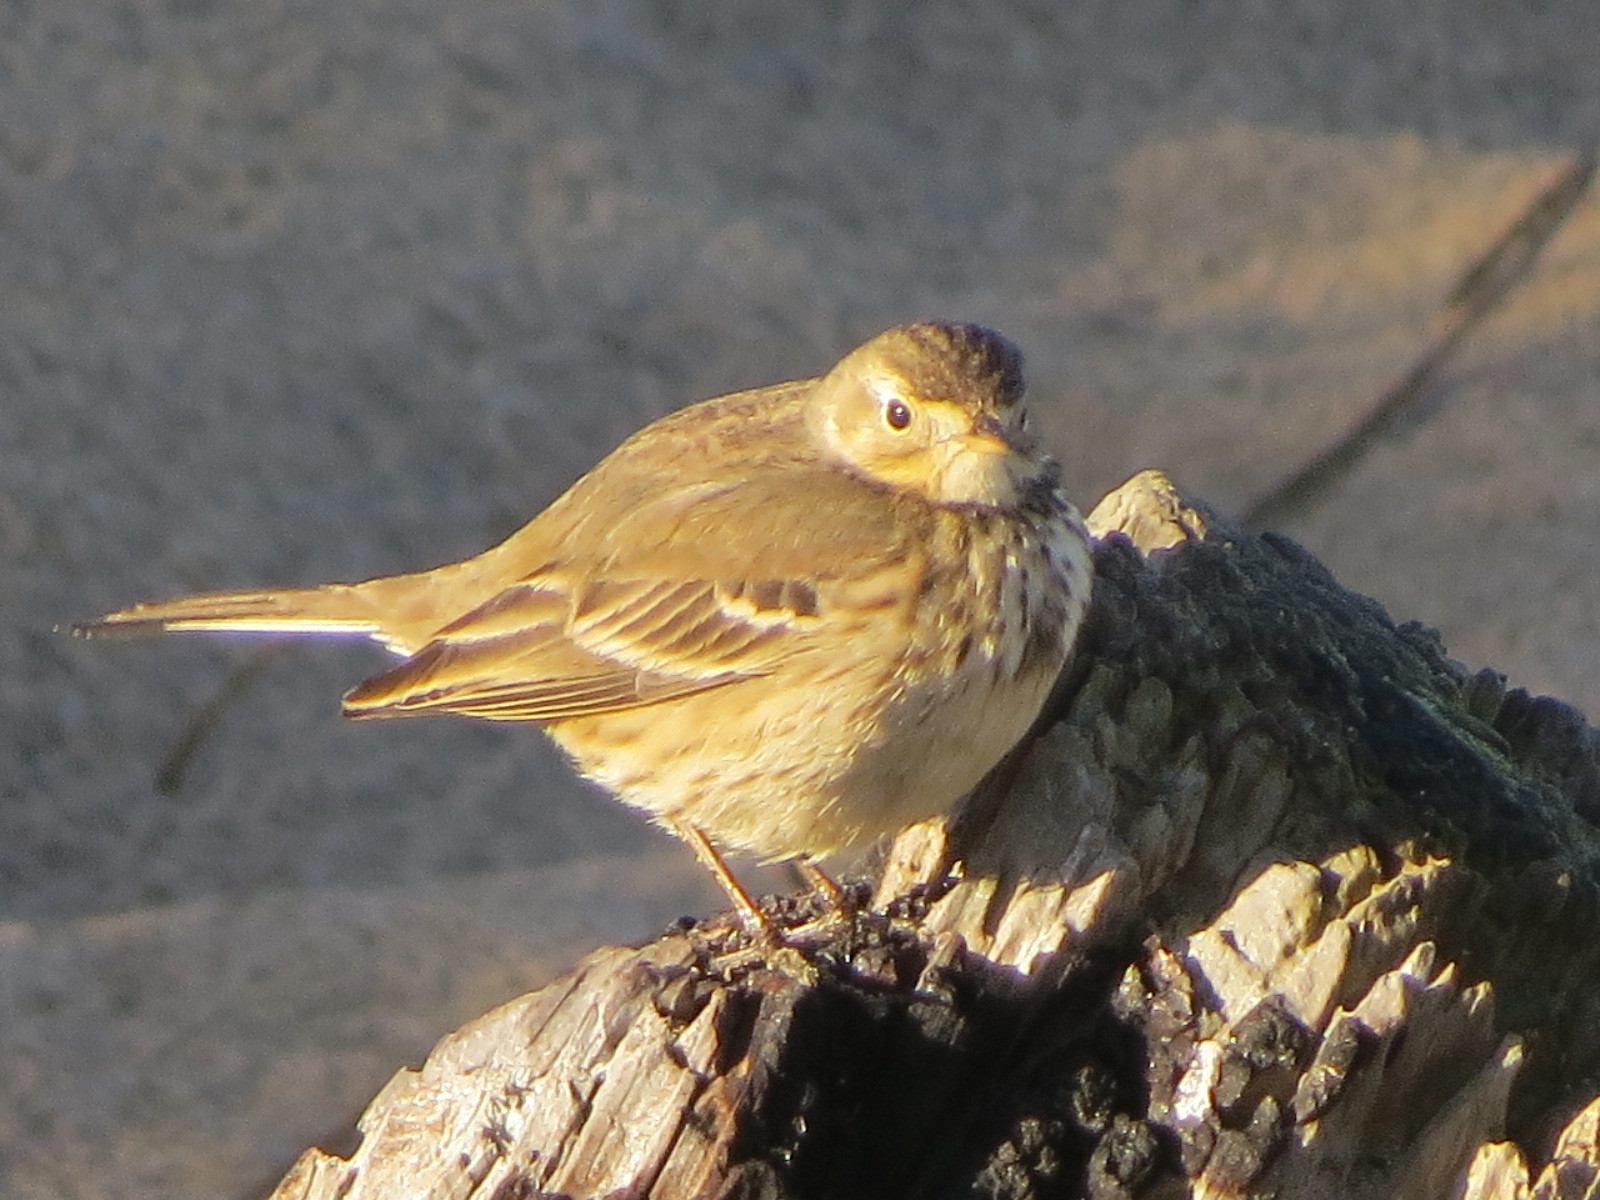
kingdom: Animalia
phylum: Chordata
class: Aves
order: Passeriformes
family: Motacillidae
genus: Anthus
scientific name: Anthus rubescens
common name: Buff-bellied pipit
